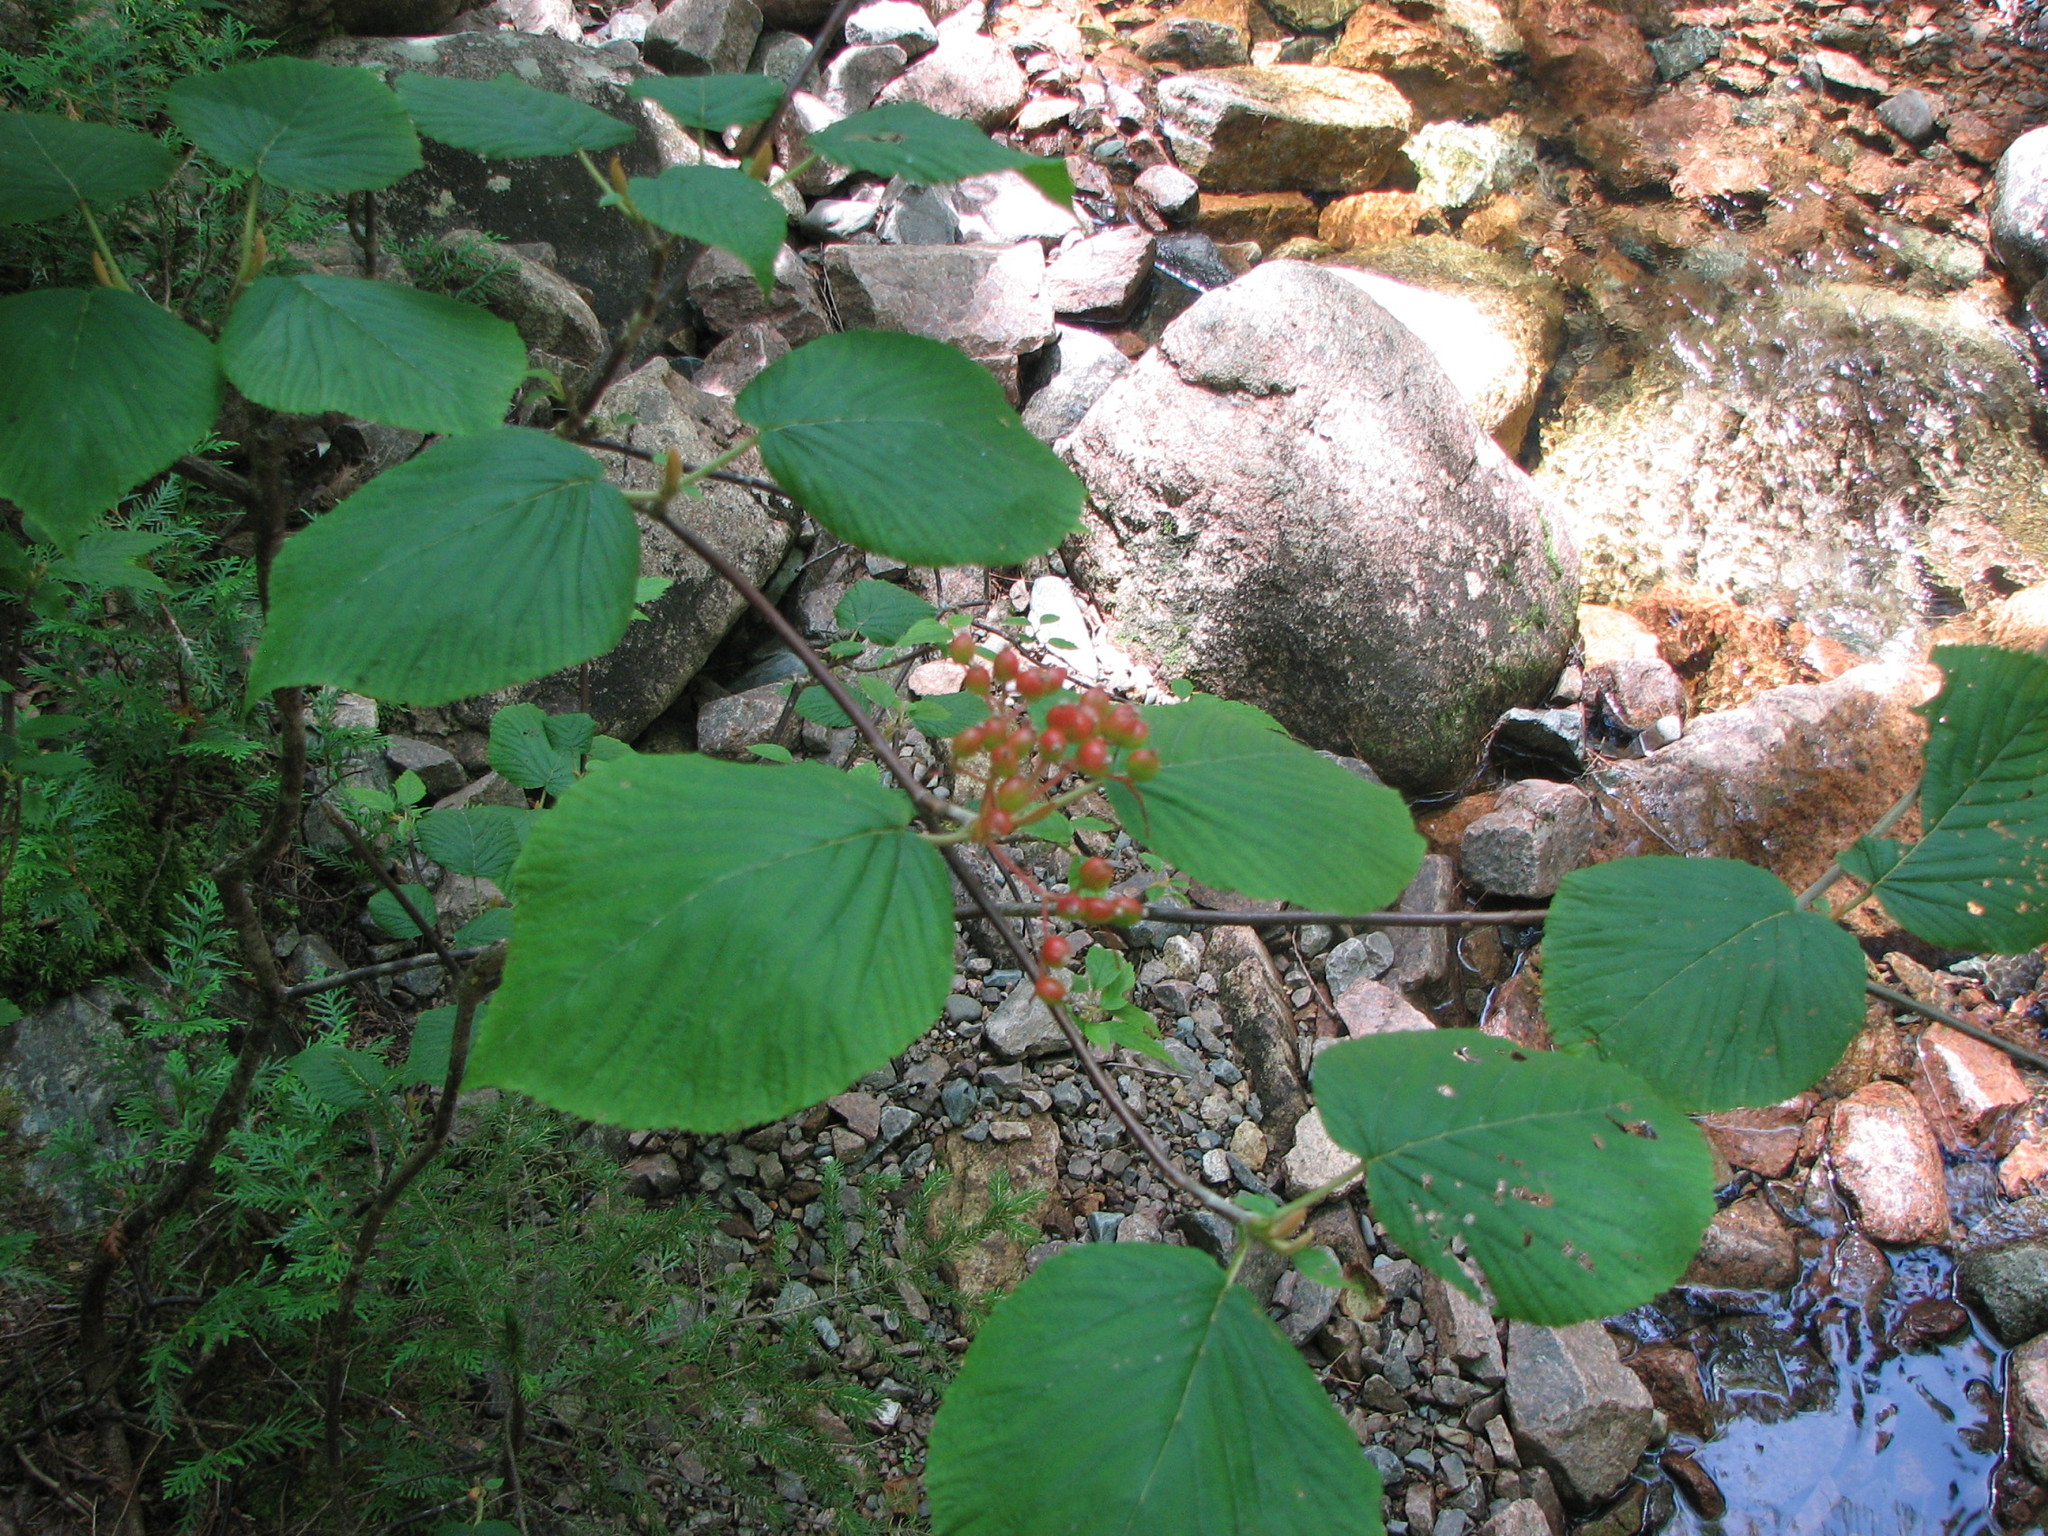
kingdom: Plantae
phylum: Tracheophyta
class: Magnoliopsida
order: Dipsacales
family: Viburnaceae
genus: Viburnum
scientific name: Viburnum lantanoides
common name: Hobblebush
